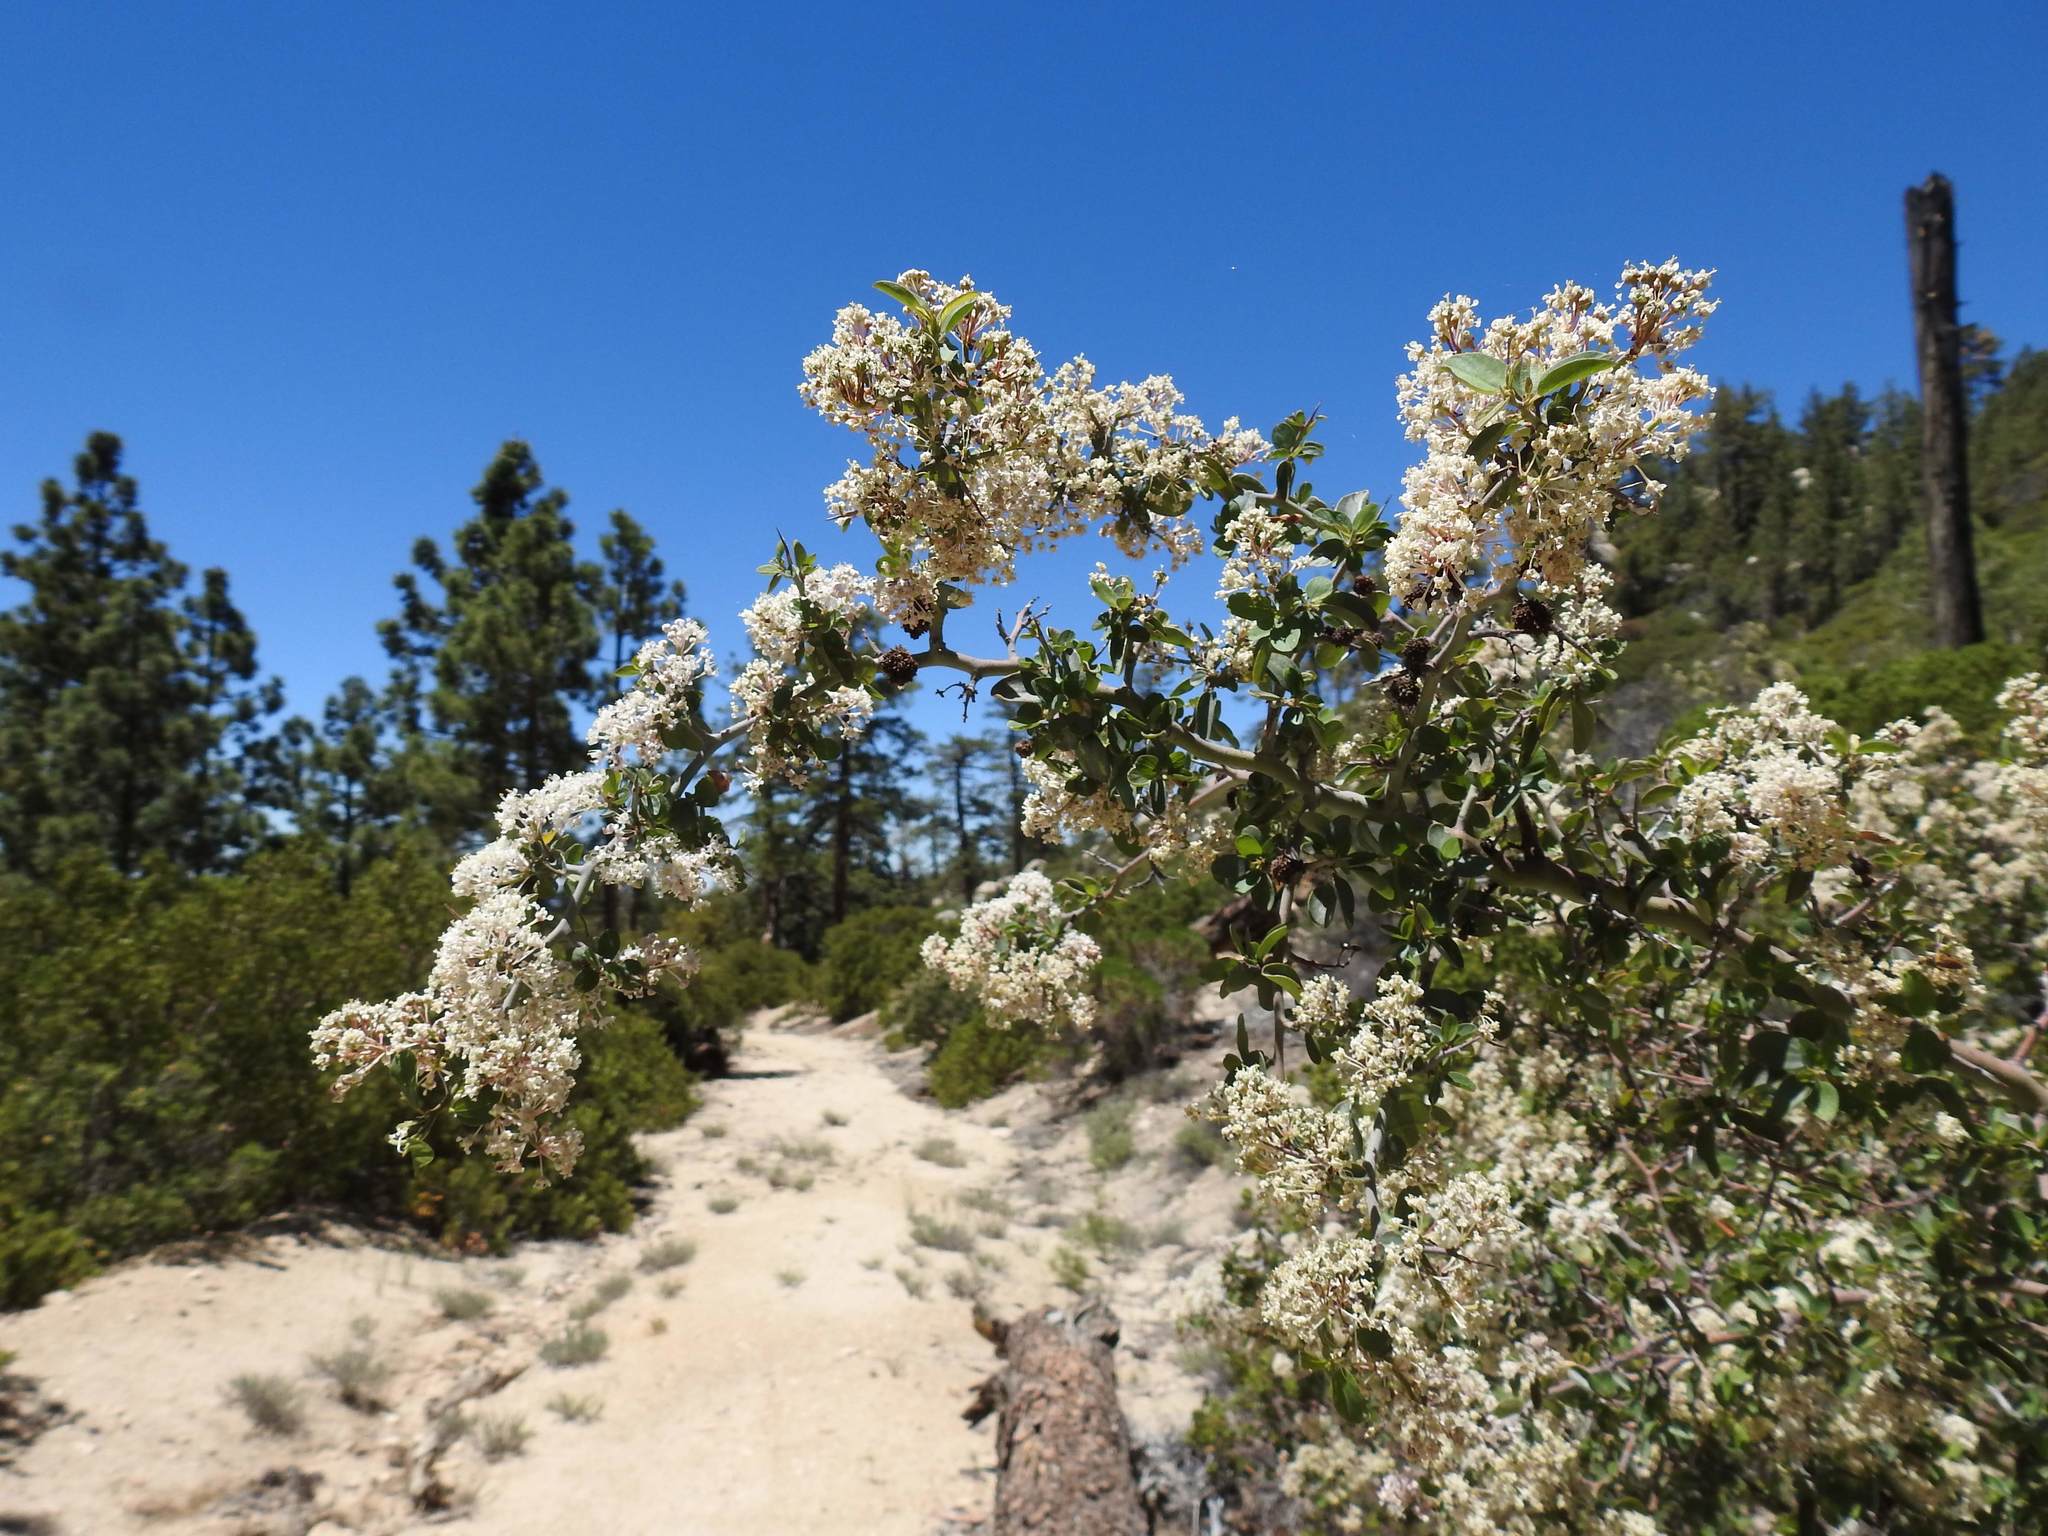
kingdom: Plantae
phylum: Tracheophyta
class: Magnoliopsida
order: Rosales
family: Rhamnaceae
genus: Ceanothus
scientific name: Ceanothus cordulatus
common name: Mountain whitethorn
